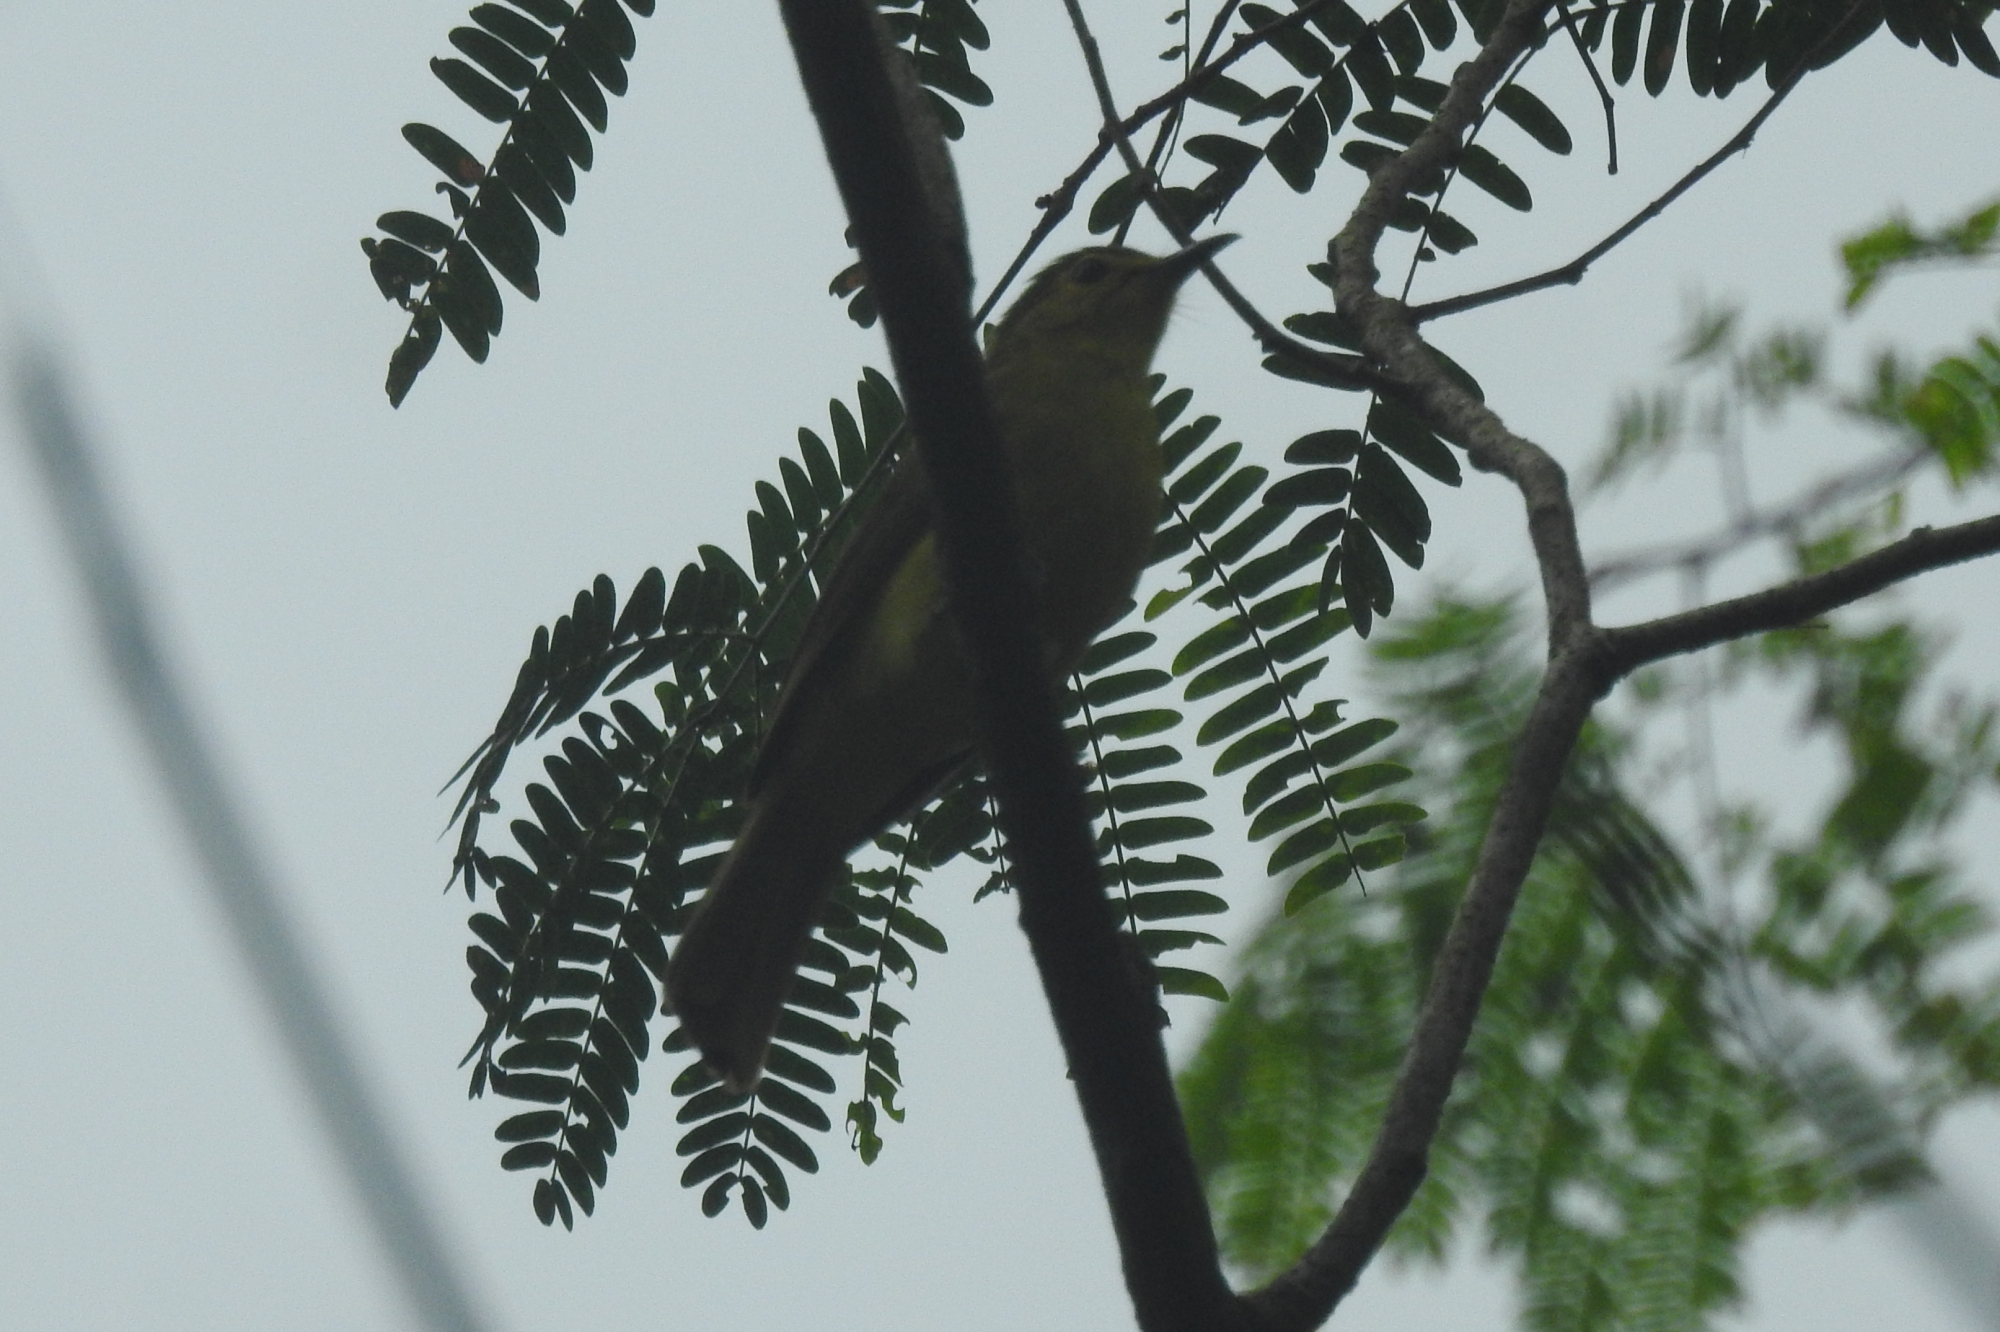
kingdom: Animalia
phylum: Chordata
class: Aves
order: Passeriformes
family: Pycnonotidae
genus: Acritillas
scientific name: Acritillas indica
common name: Yellow-browed bulbul
